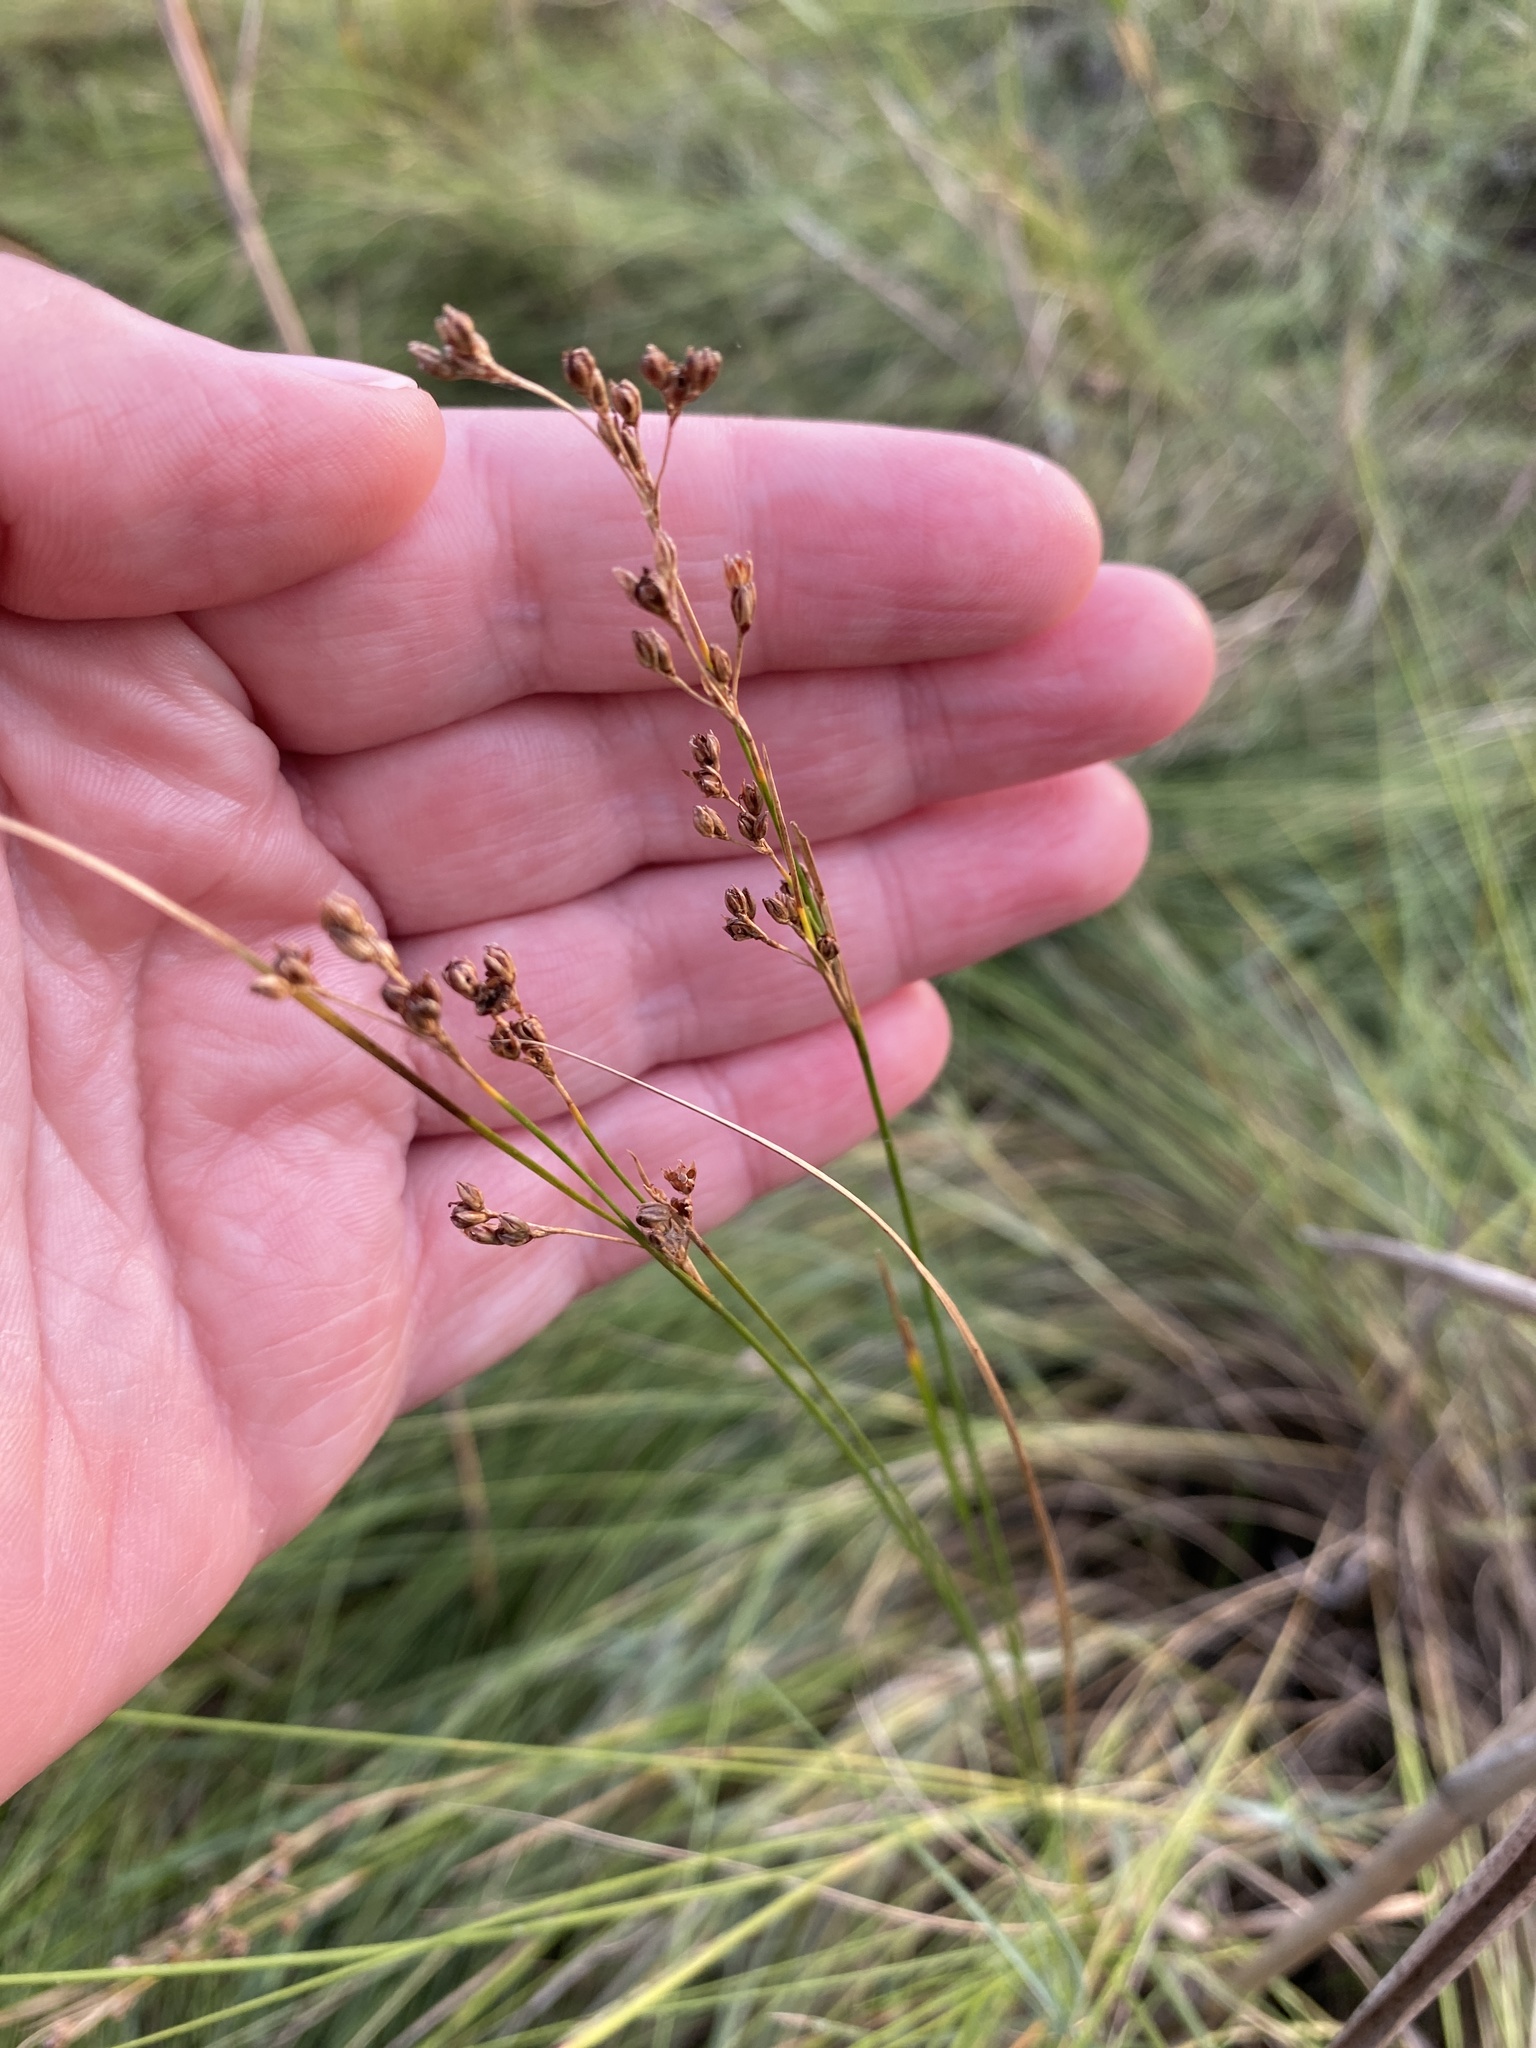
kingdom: Plantae
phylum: Tracheophyta
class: Liliopsida
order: Poales
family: Juncaceae
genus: Juncus
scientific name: Juncus gerardi
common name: Saltmarsh rush
